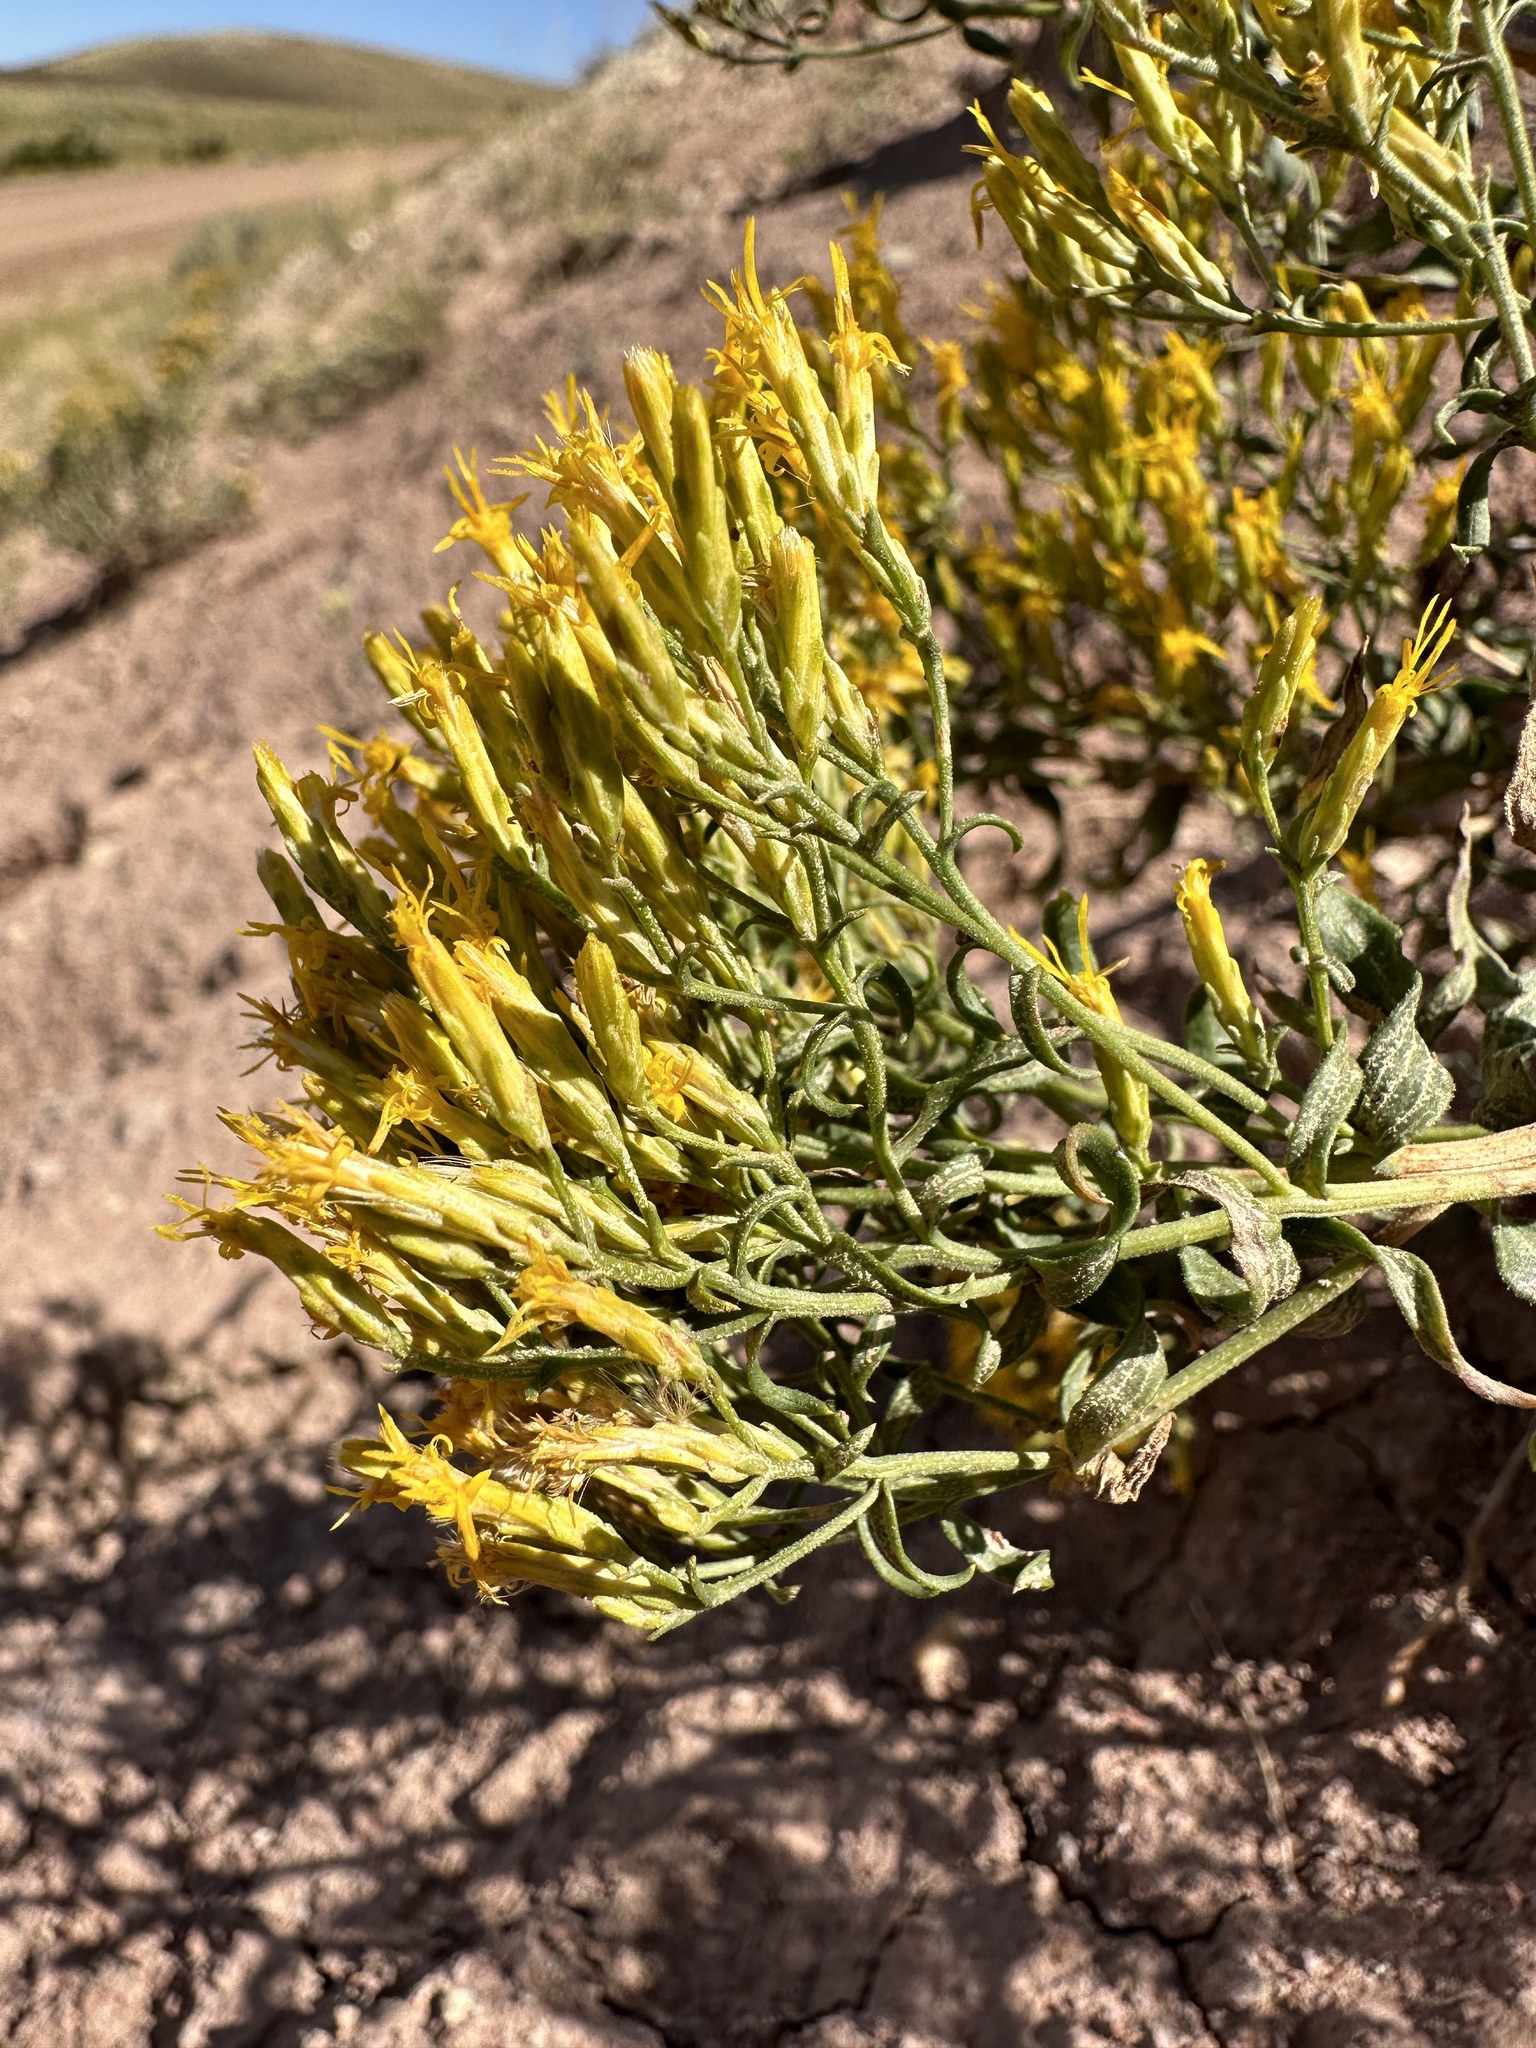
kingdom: Plantae
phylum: Tracheophyta
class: Magnoliopsida
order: Asterales
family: Asteraceae
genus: Chrysothamnus
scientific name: Chrysothamnus viscidiflorus
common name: Yellow rabbitbrush
